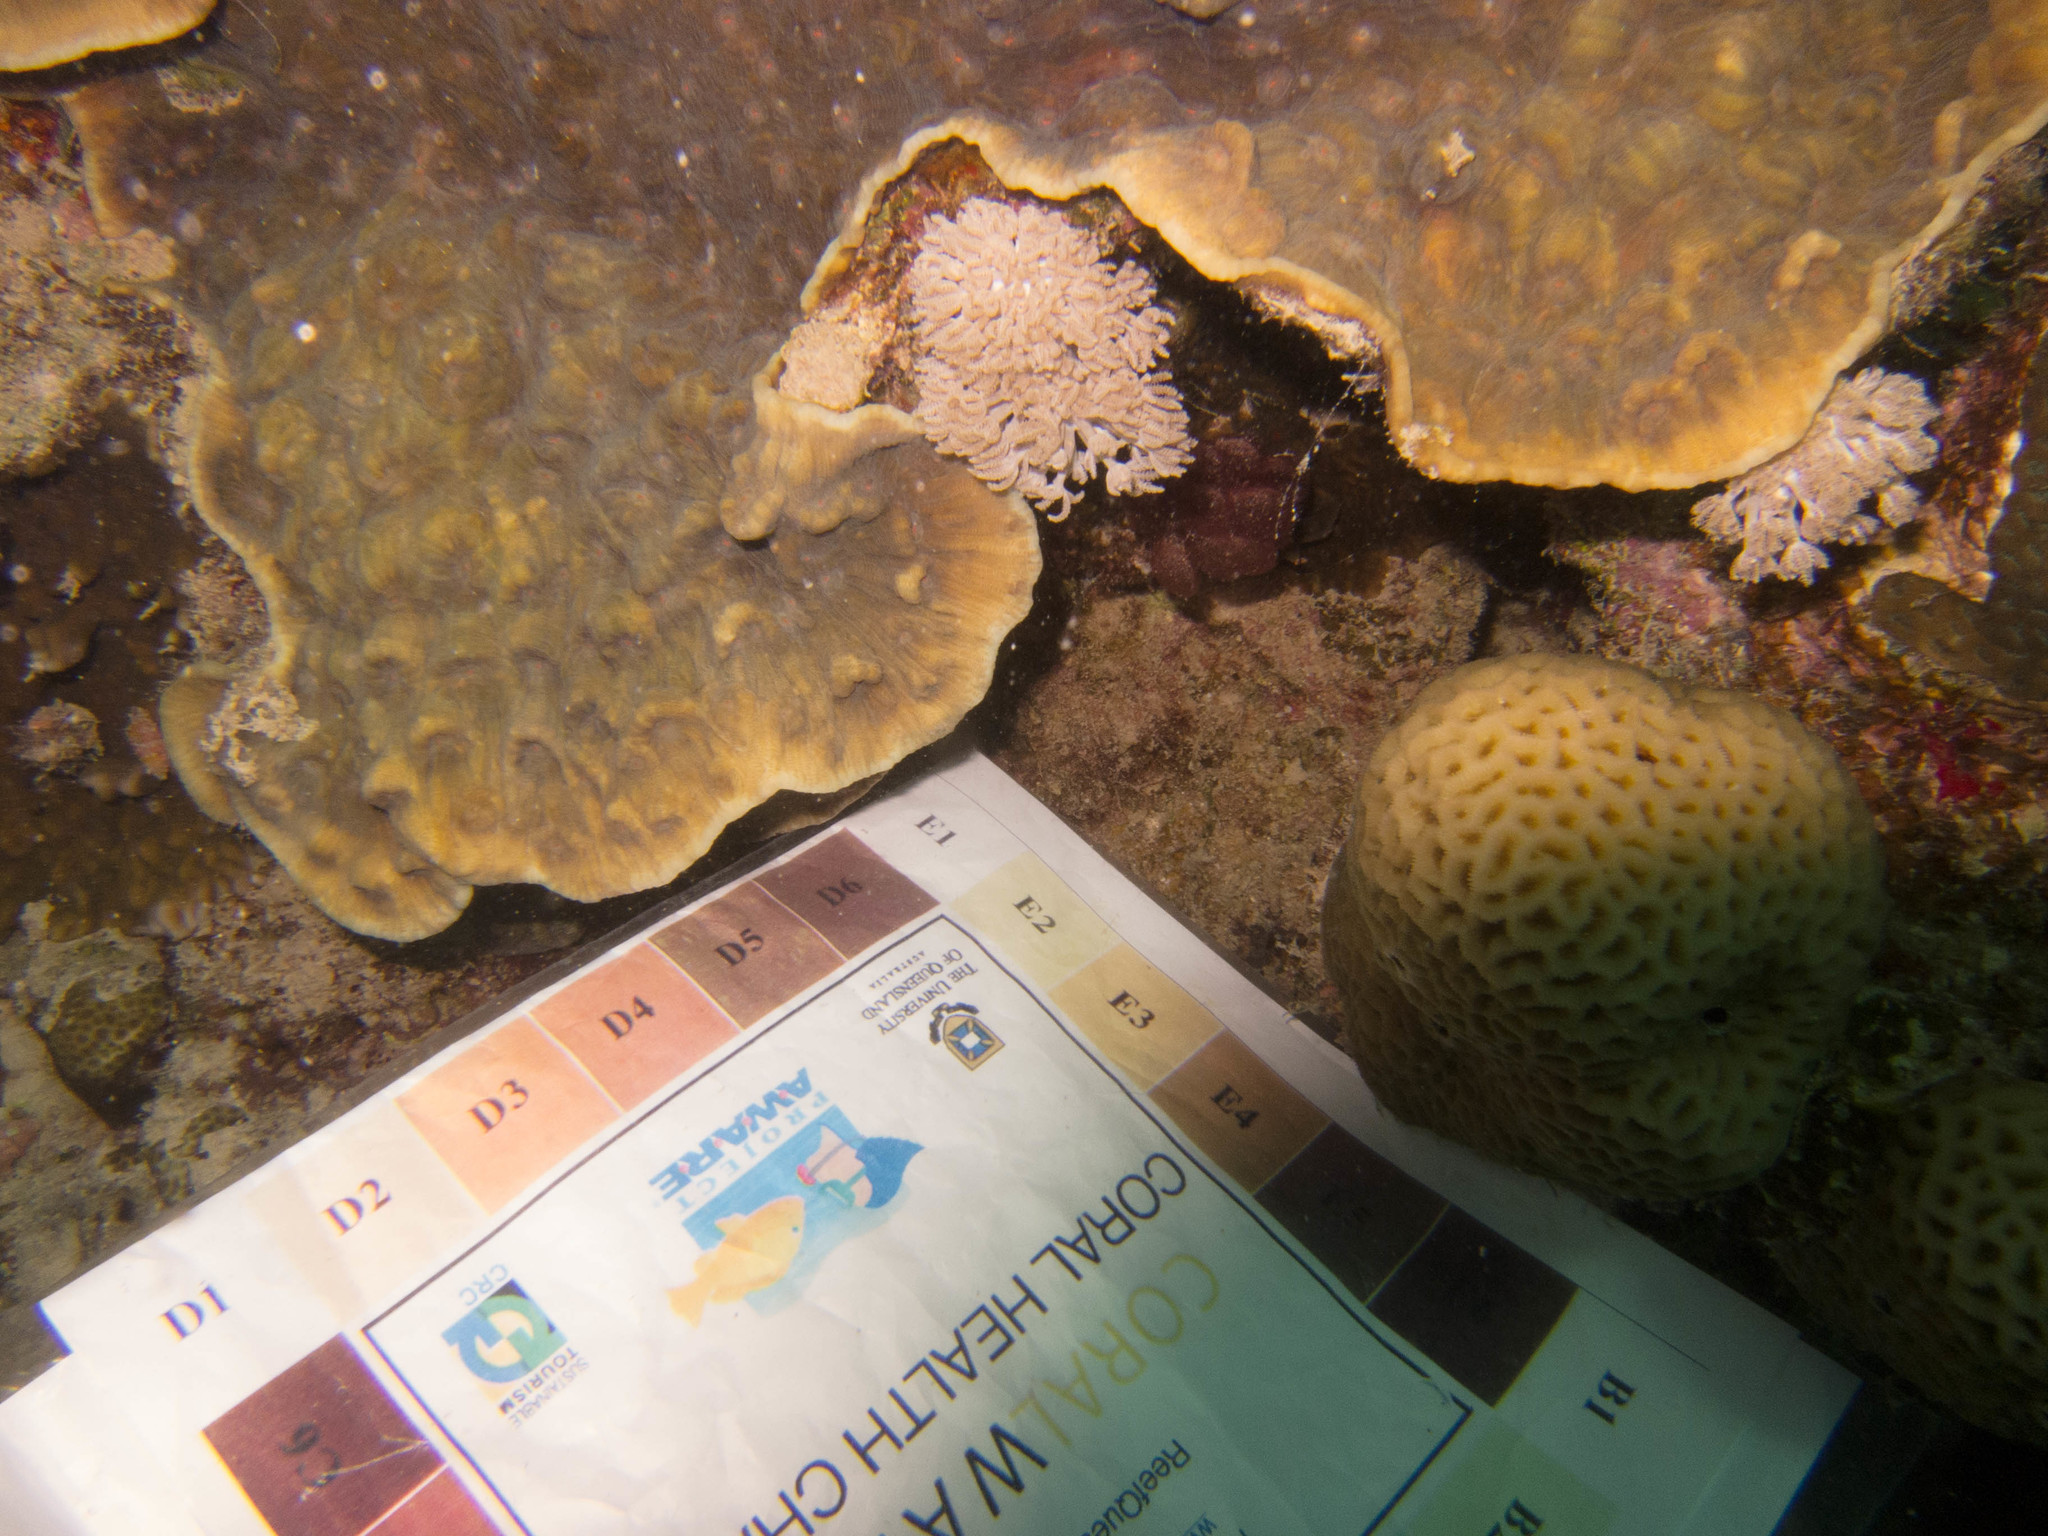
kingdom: Animalia
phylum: Cnidaria
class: Anthozoa
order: Scleractinia
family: Merulinidae
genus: Mycedium
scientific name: Mycedium elephantotus
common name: Chinese lettuce coral
